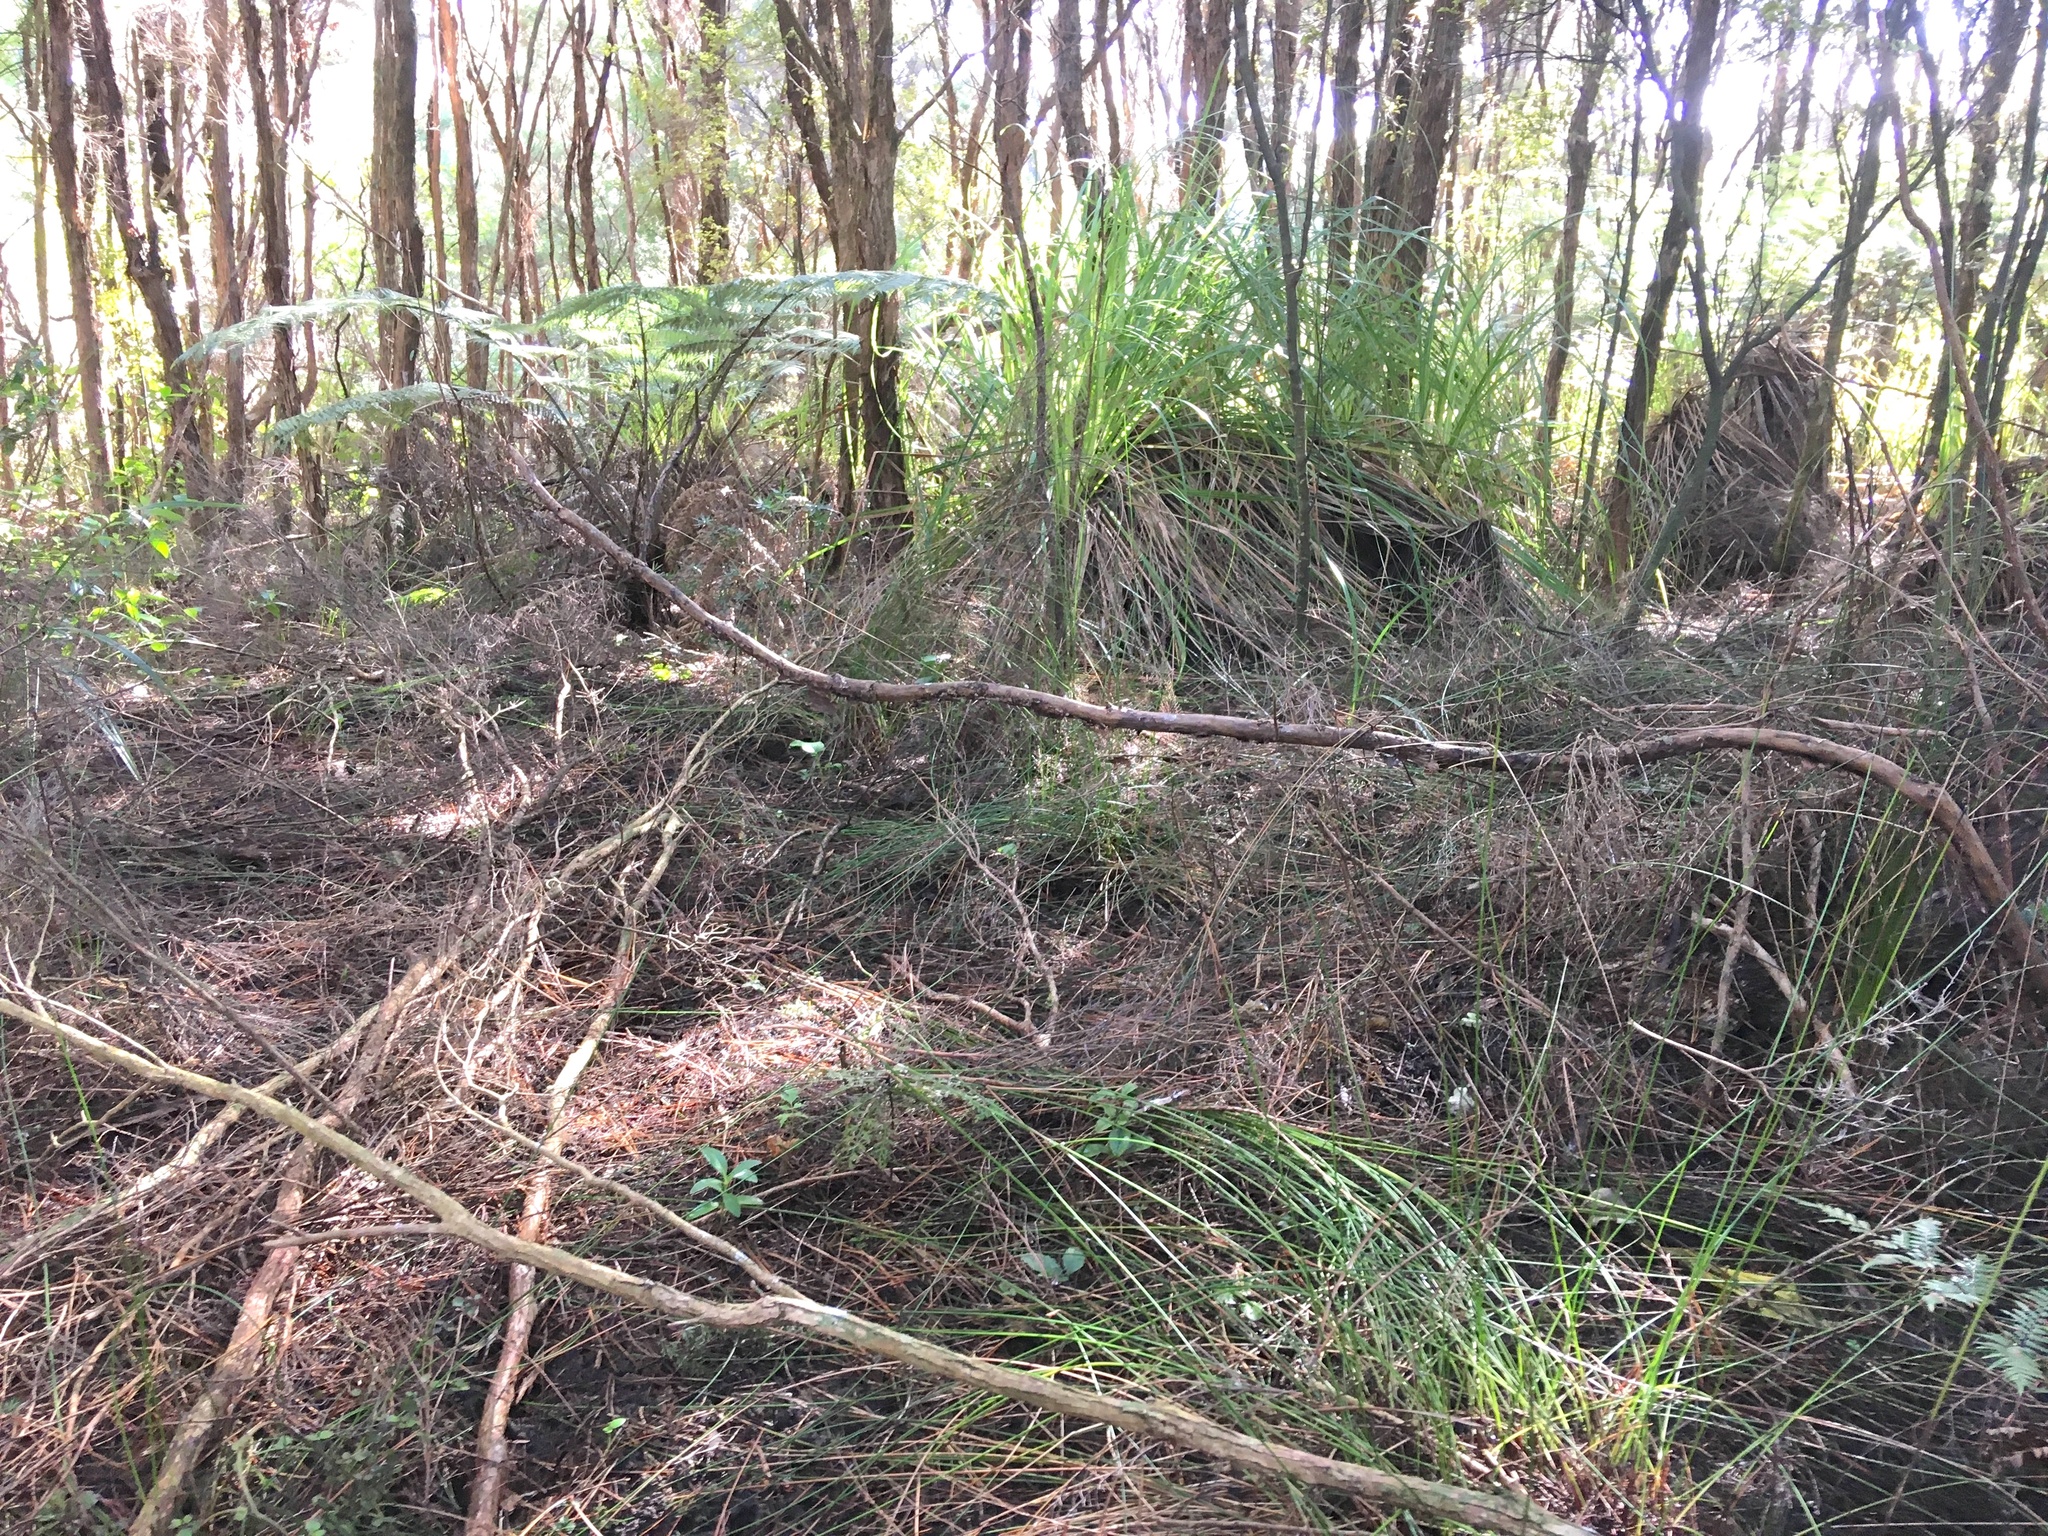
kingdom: Plantae
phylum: Tracheophyta
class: Pinopsida
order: Pinales
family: Phyllocladaceae
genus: Phyllocladus
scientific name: Phyllocladus trichomanoides
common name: Celery pine
